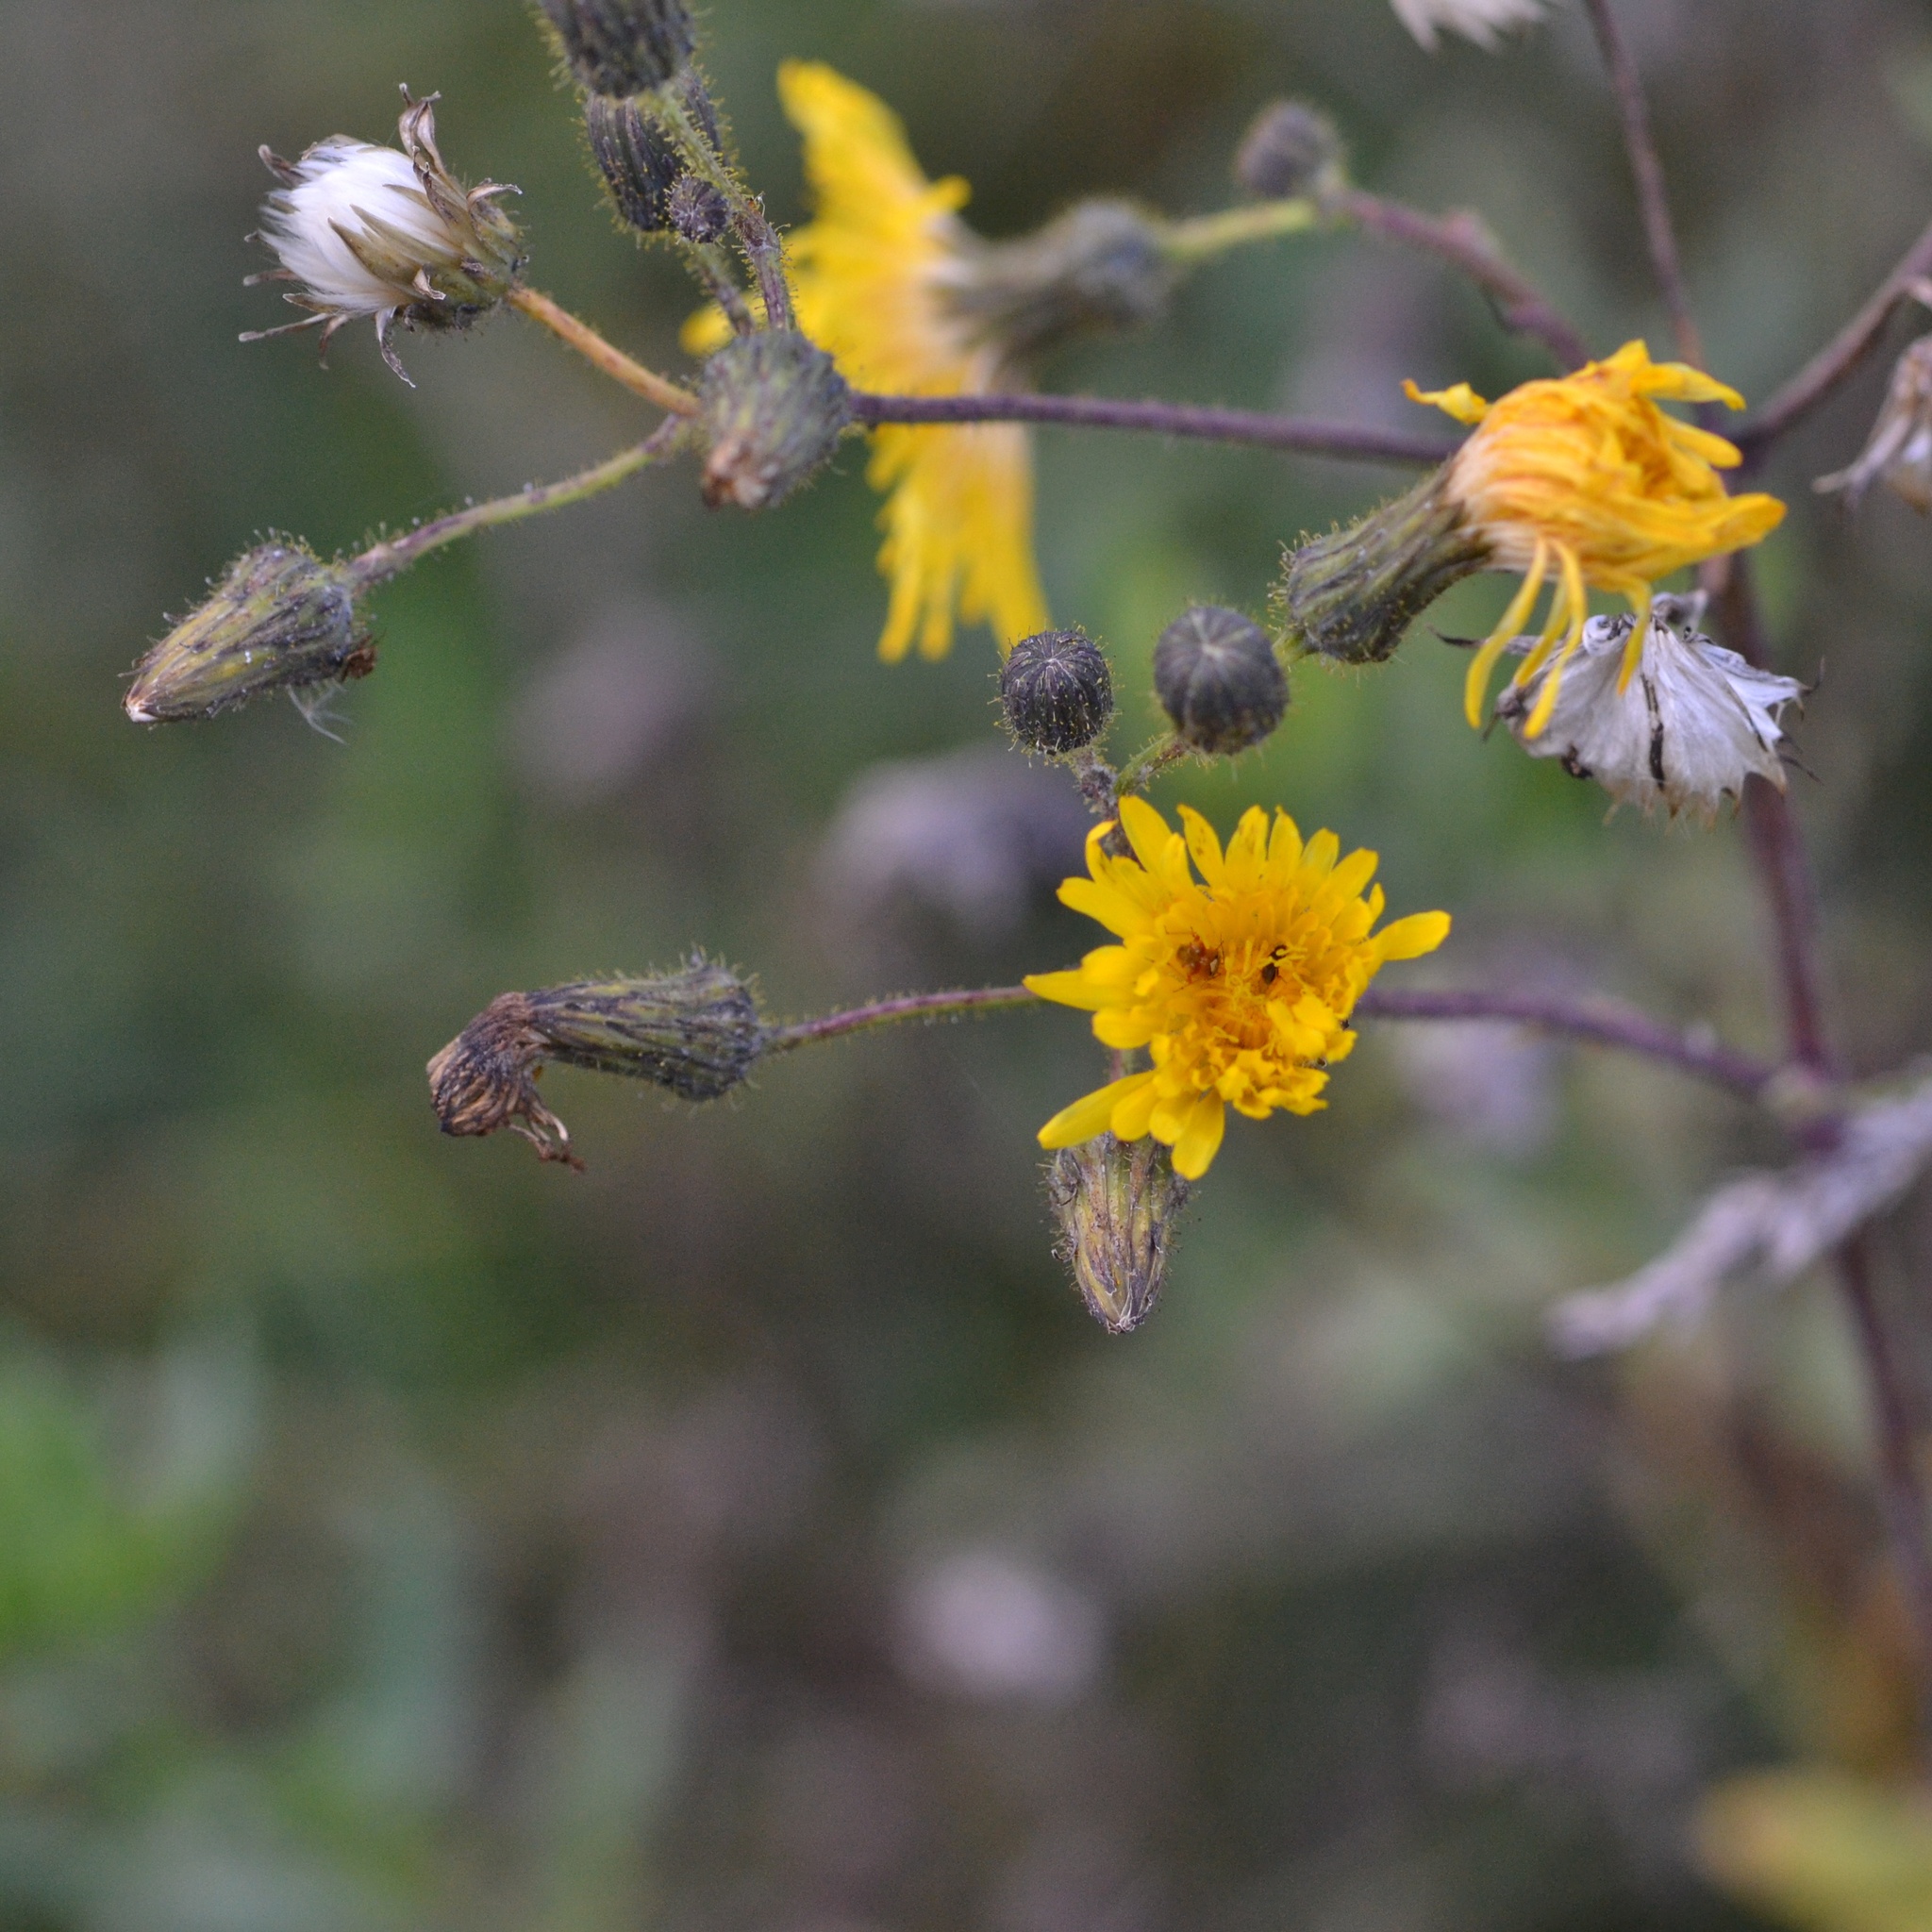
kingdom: Plantae
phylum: Tracheophyta
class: Magnoliopsida
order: Asterales
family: Asteraceae
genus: Sonchus
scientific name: Sonchus arvensis
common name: Perennial sow-thistle
